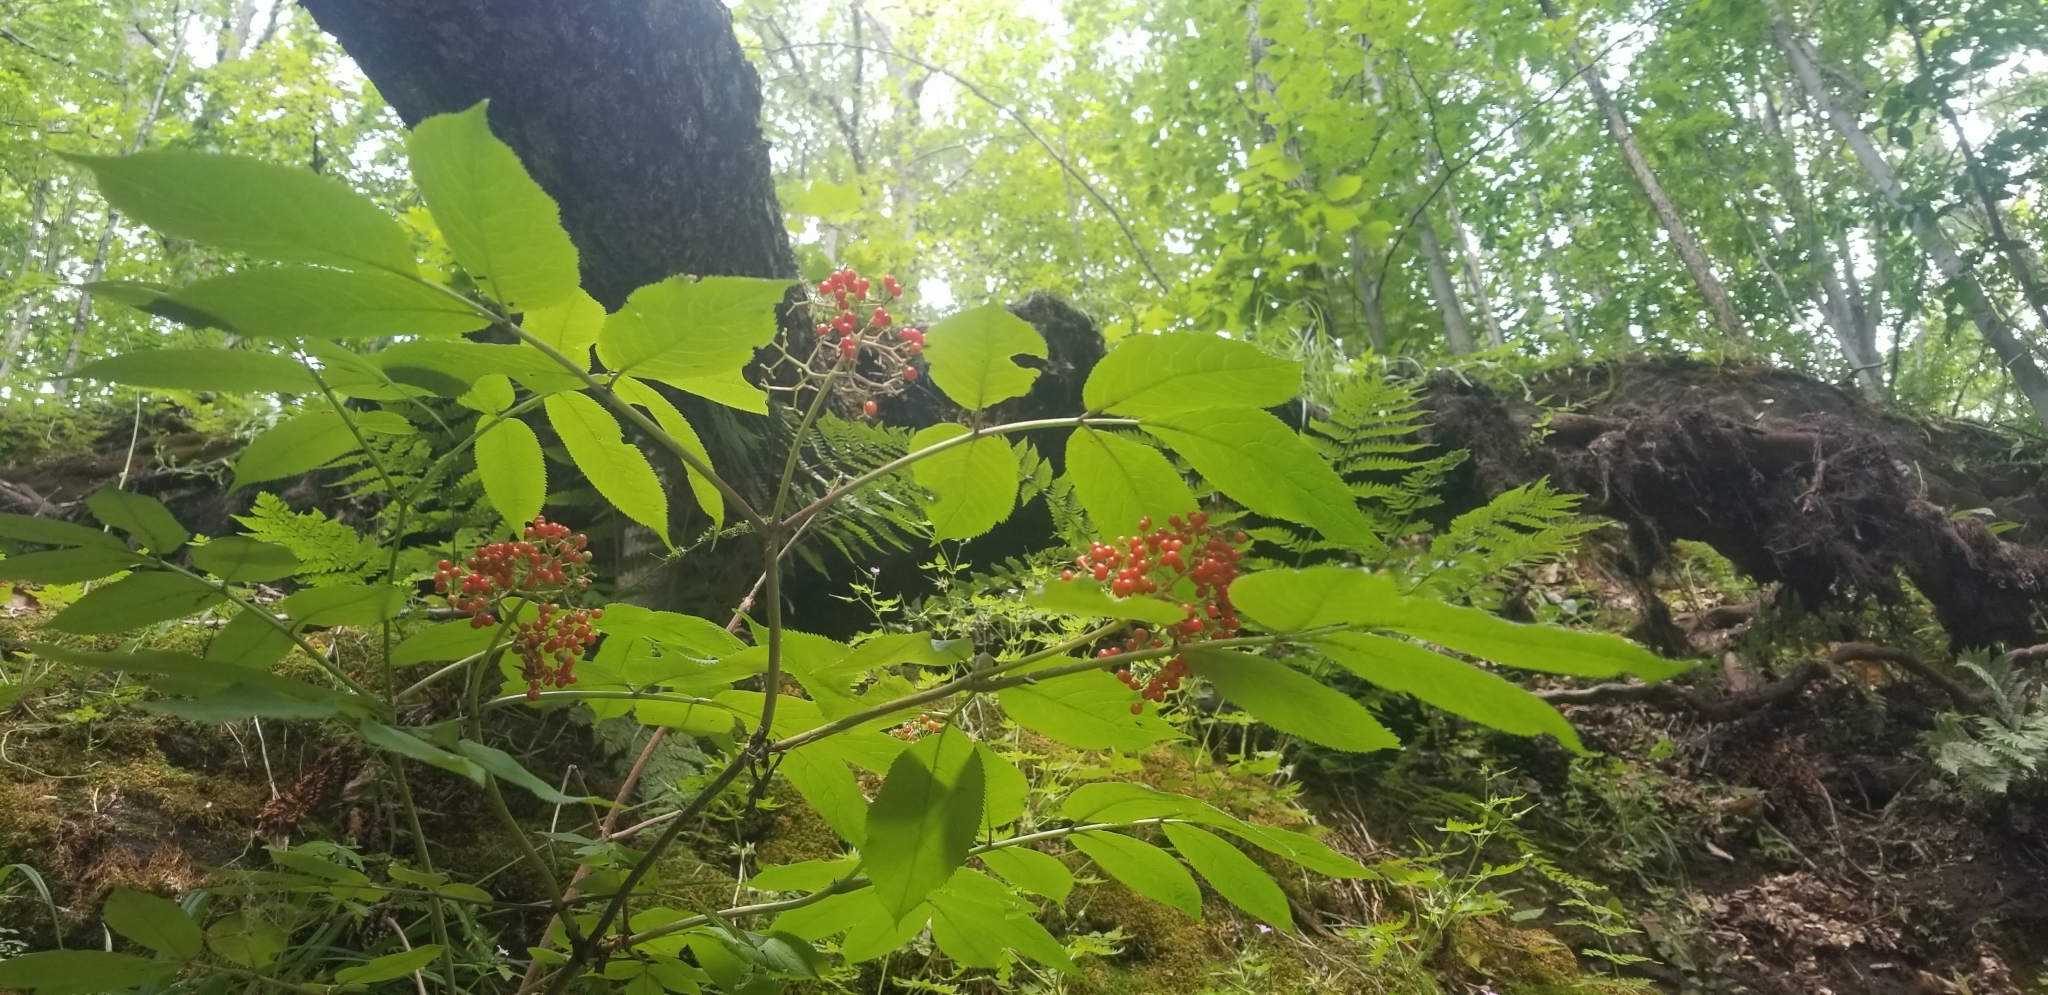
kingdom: Plantae
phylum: Tracheophyta
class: Magnoliopsida
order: Dipsacales
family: Viburnaceae
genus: Sambucus
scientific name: Sambucus racemosa
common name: Red-berried elder
